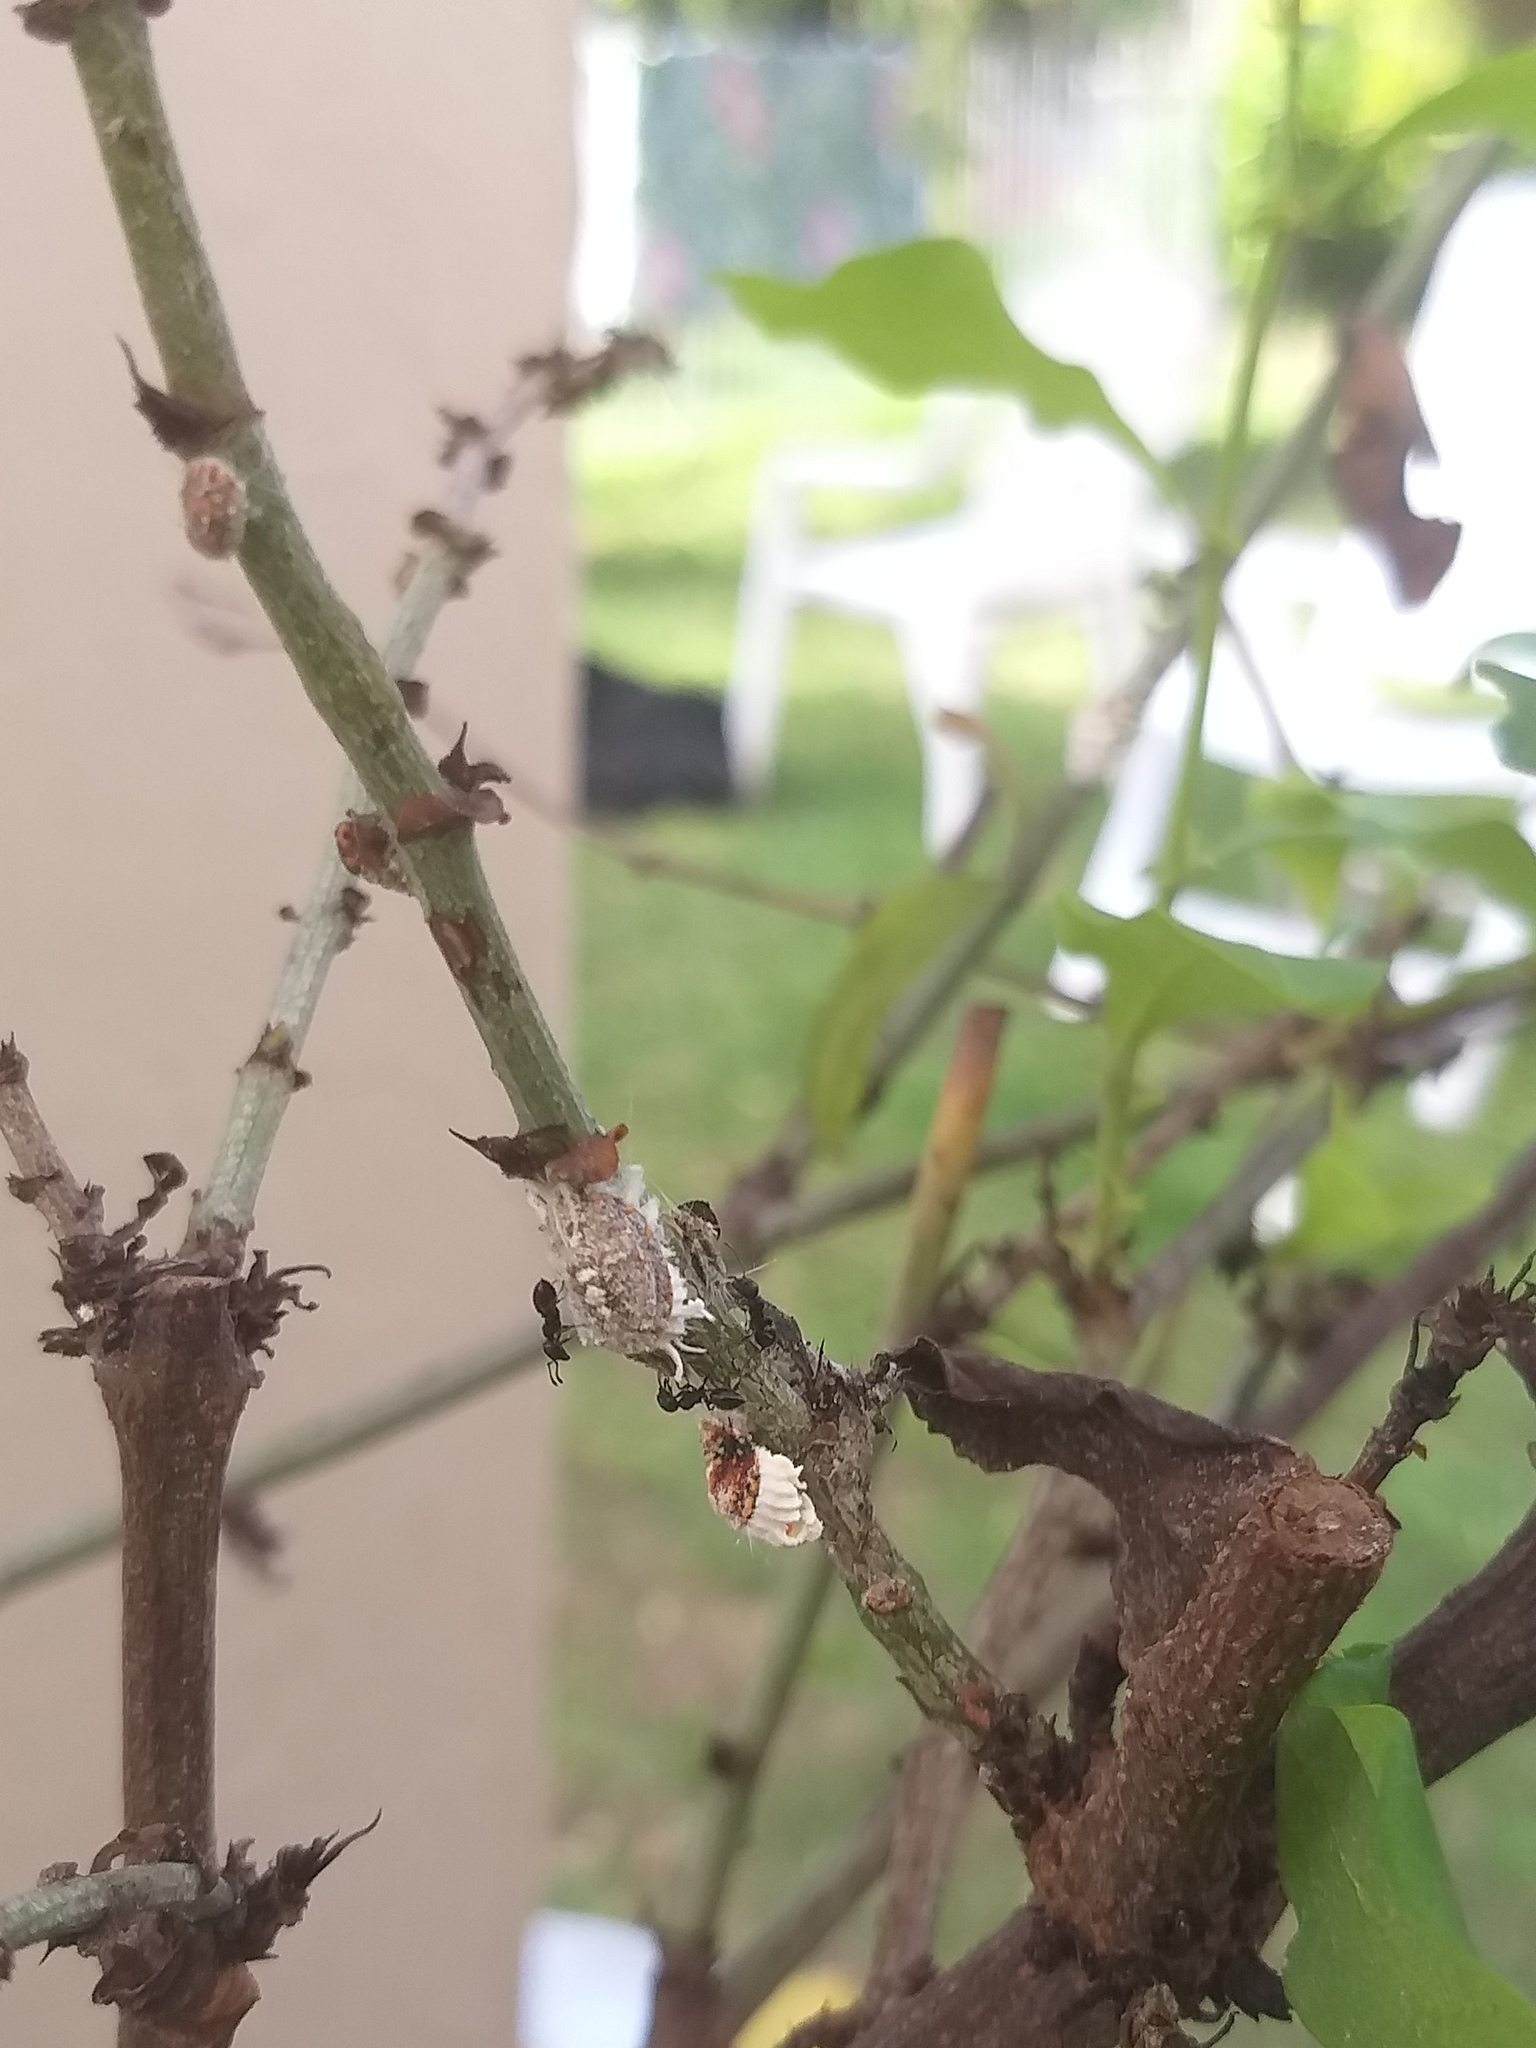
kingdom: Animalia
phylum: Arthropoda
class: Insecta
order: Hemiptera
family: Margarodidae
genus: Icerya
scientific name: Icerya purchasi
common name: Cottony cushion scale
